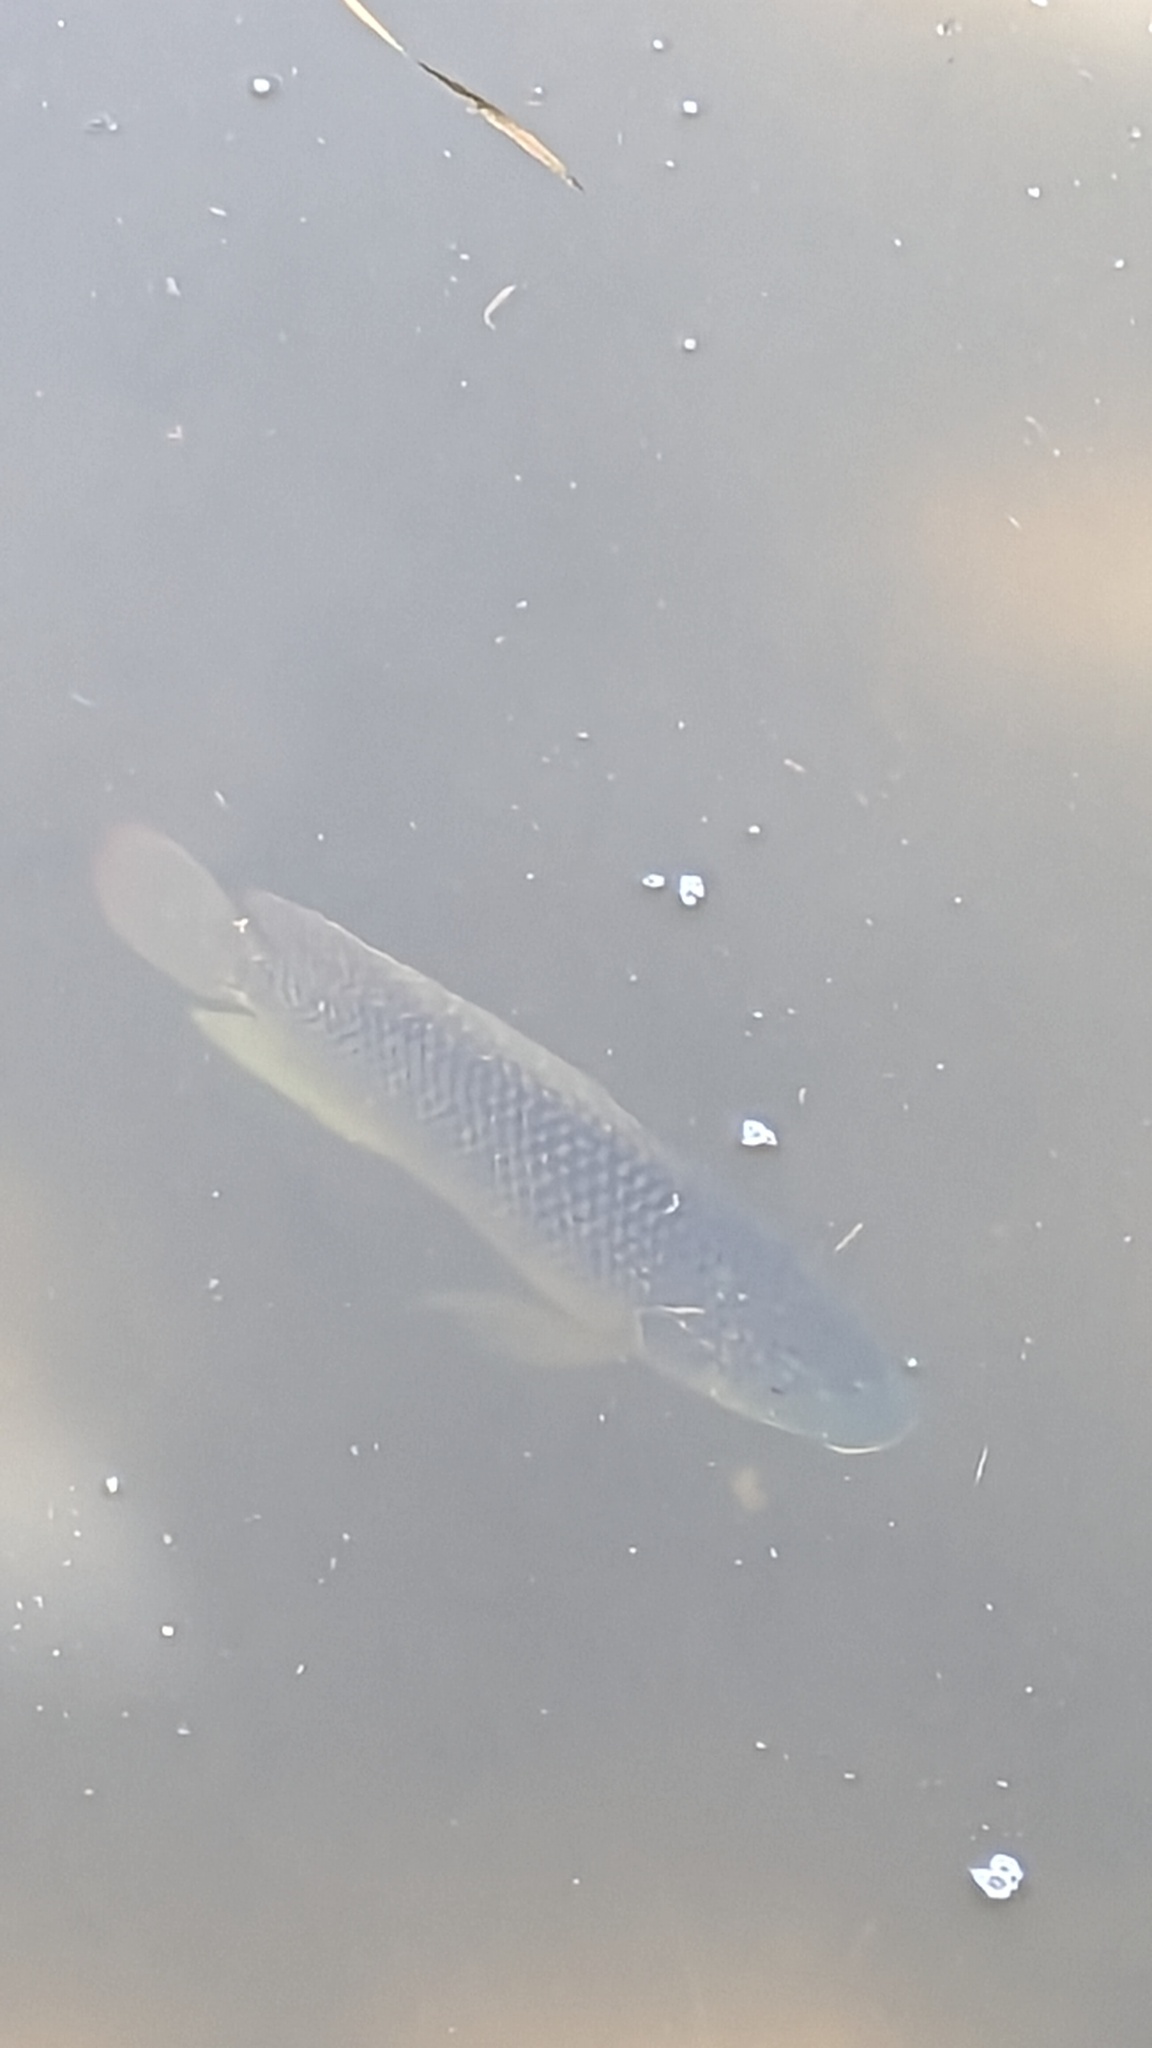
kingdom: Animalia
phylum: Chordata
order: Perciformes
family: Cichlidae
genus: Oreochromis
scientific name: Oreochromis aureus
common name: Blue tilapia
